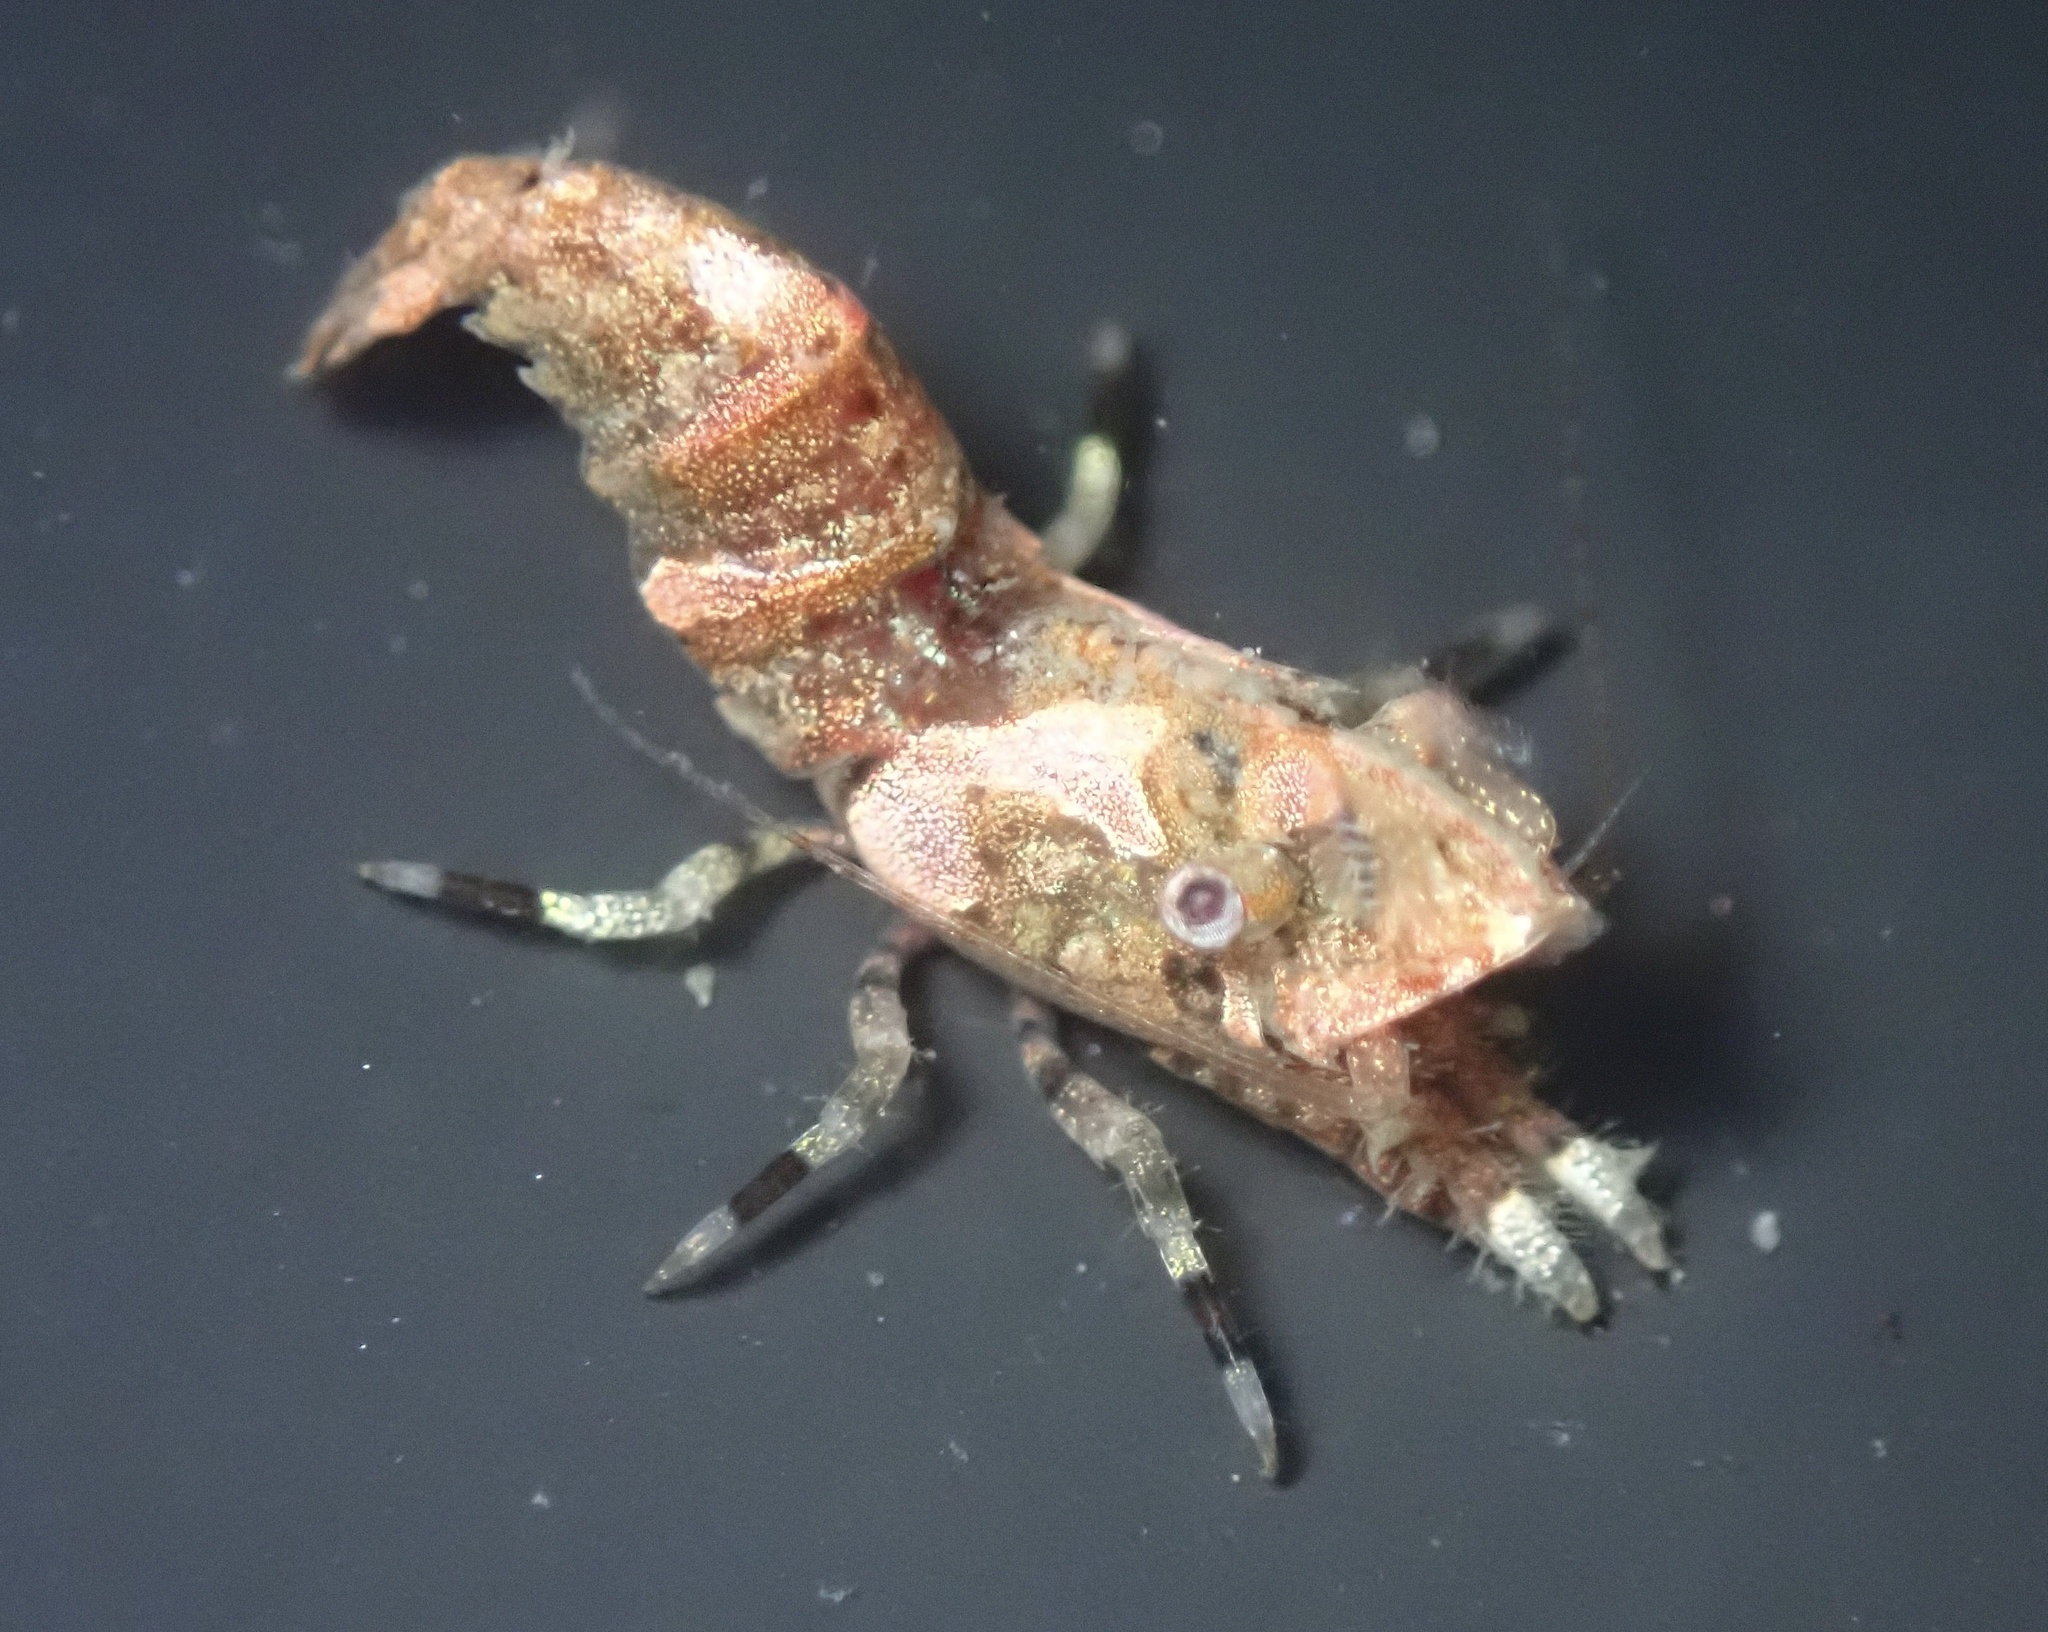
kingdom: Animalia
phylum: Arthropoda
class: Malacostraca
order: Decapoda
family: Thoridae
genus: Spirontocaris
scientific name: Spirontocaris prionota
